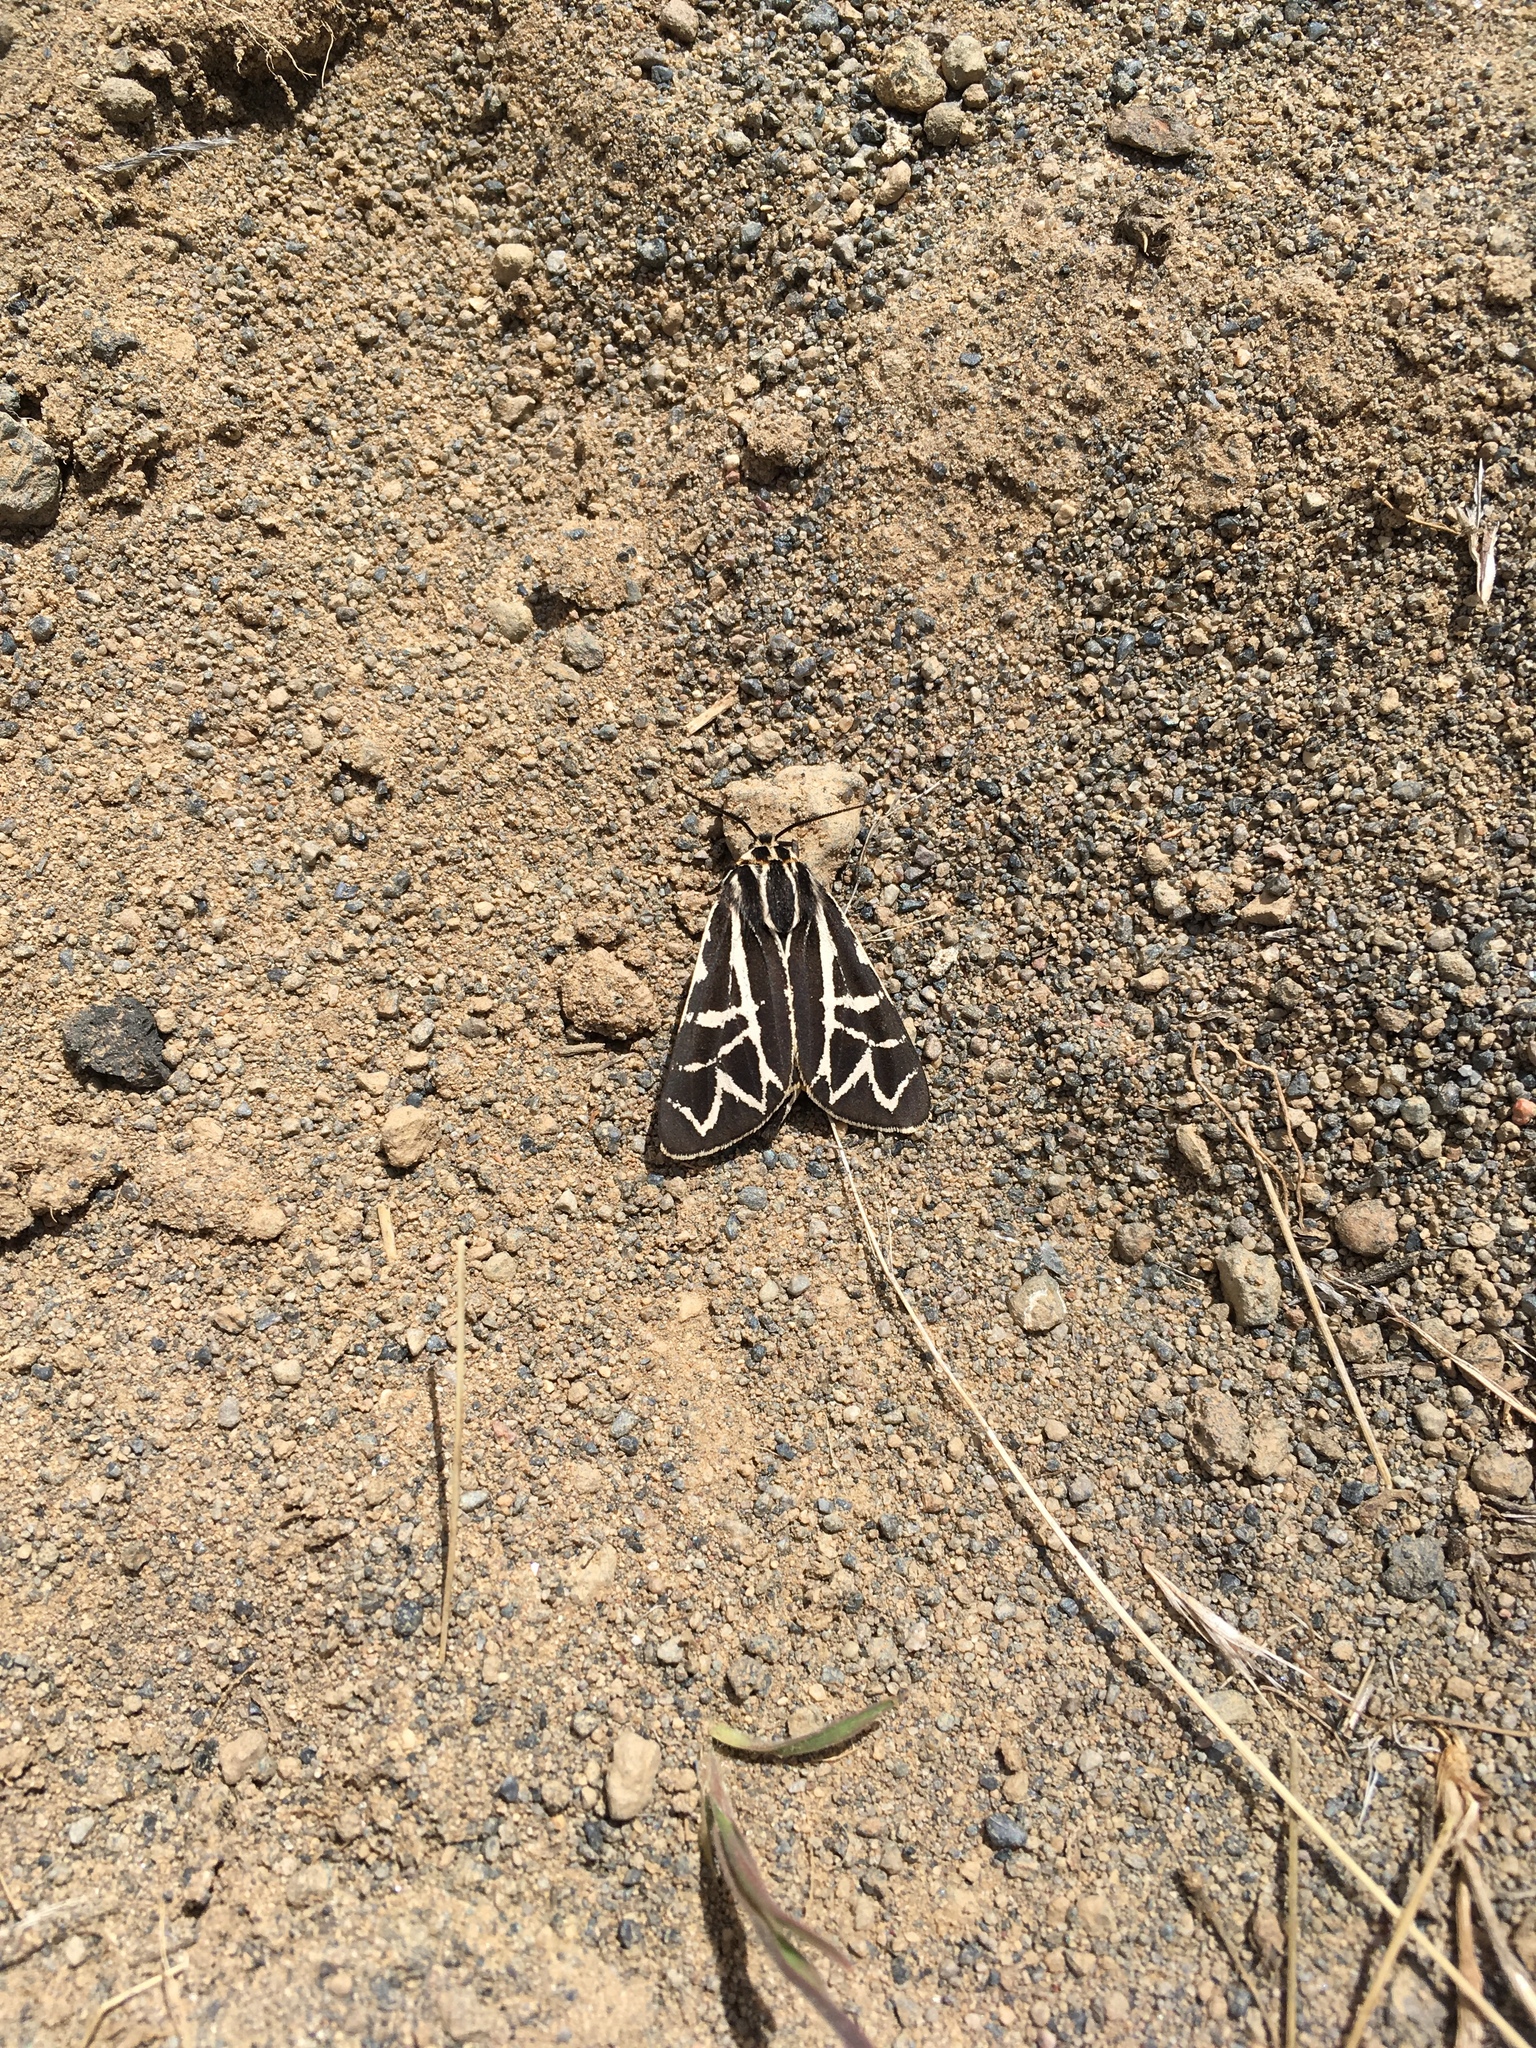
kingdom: Animalia
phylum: Arthropoda
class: Insecta
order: Lepidoptera
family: Erebidae
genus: Apantesis
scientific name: Apantesis
